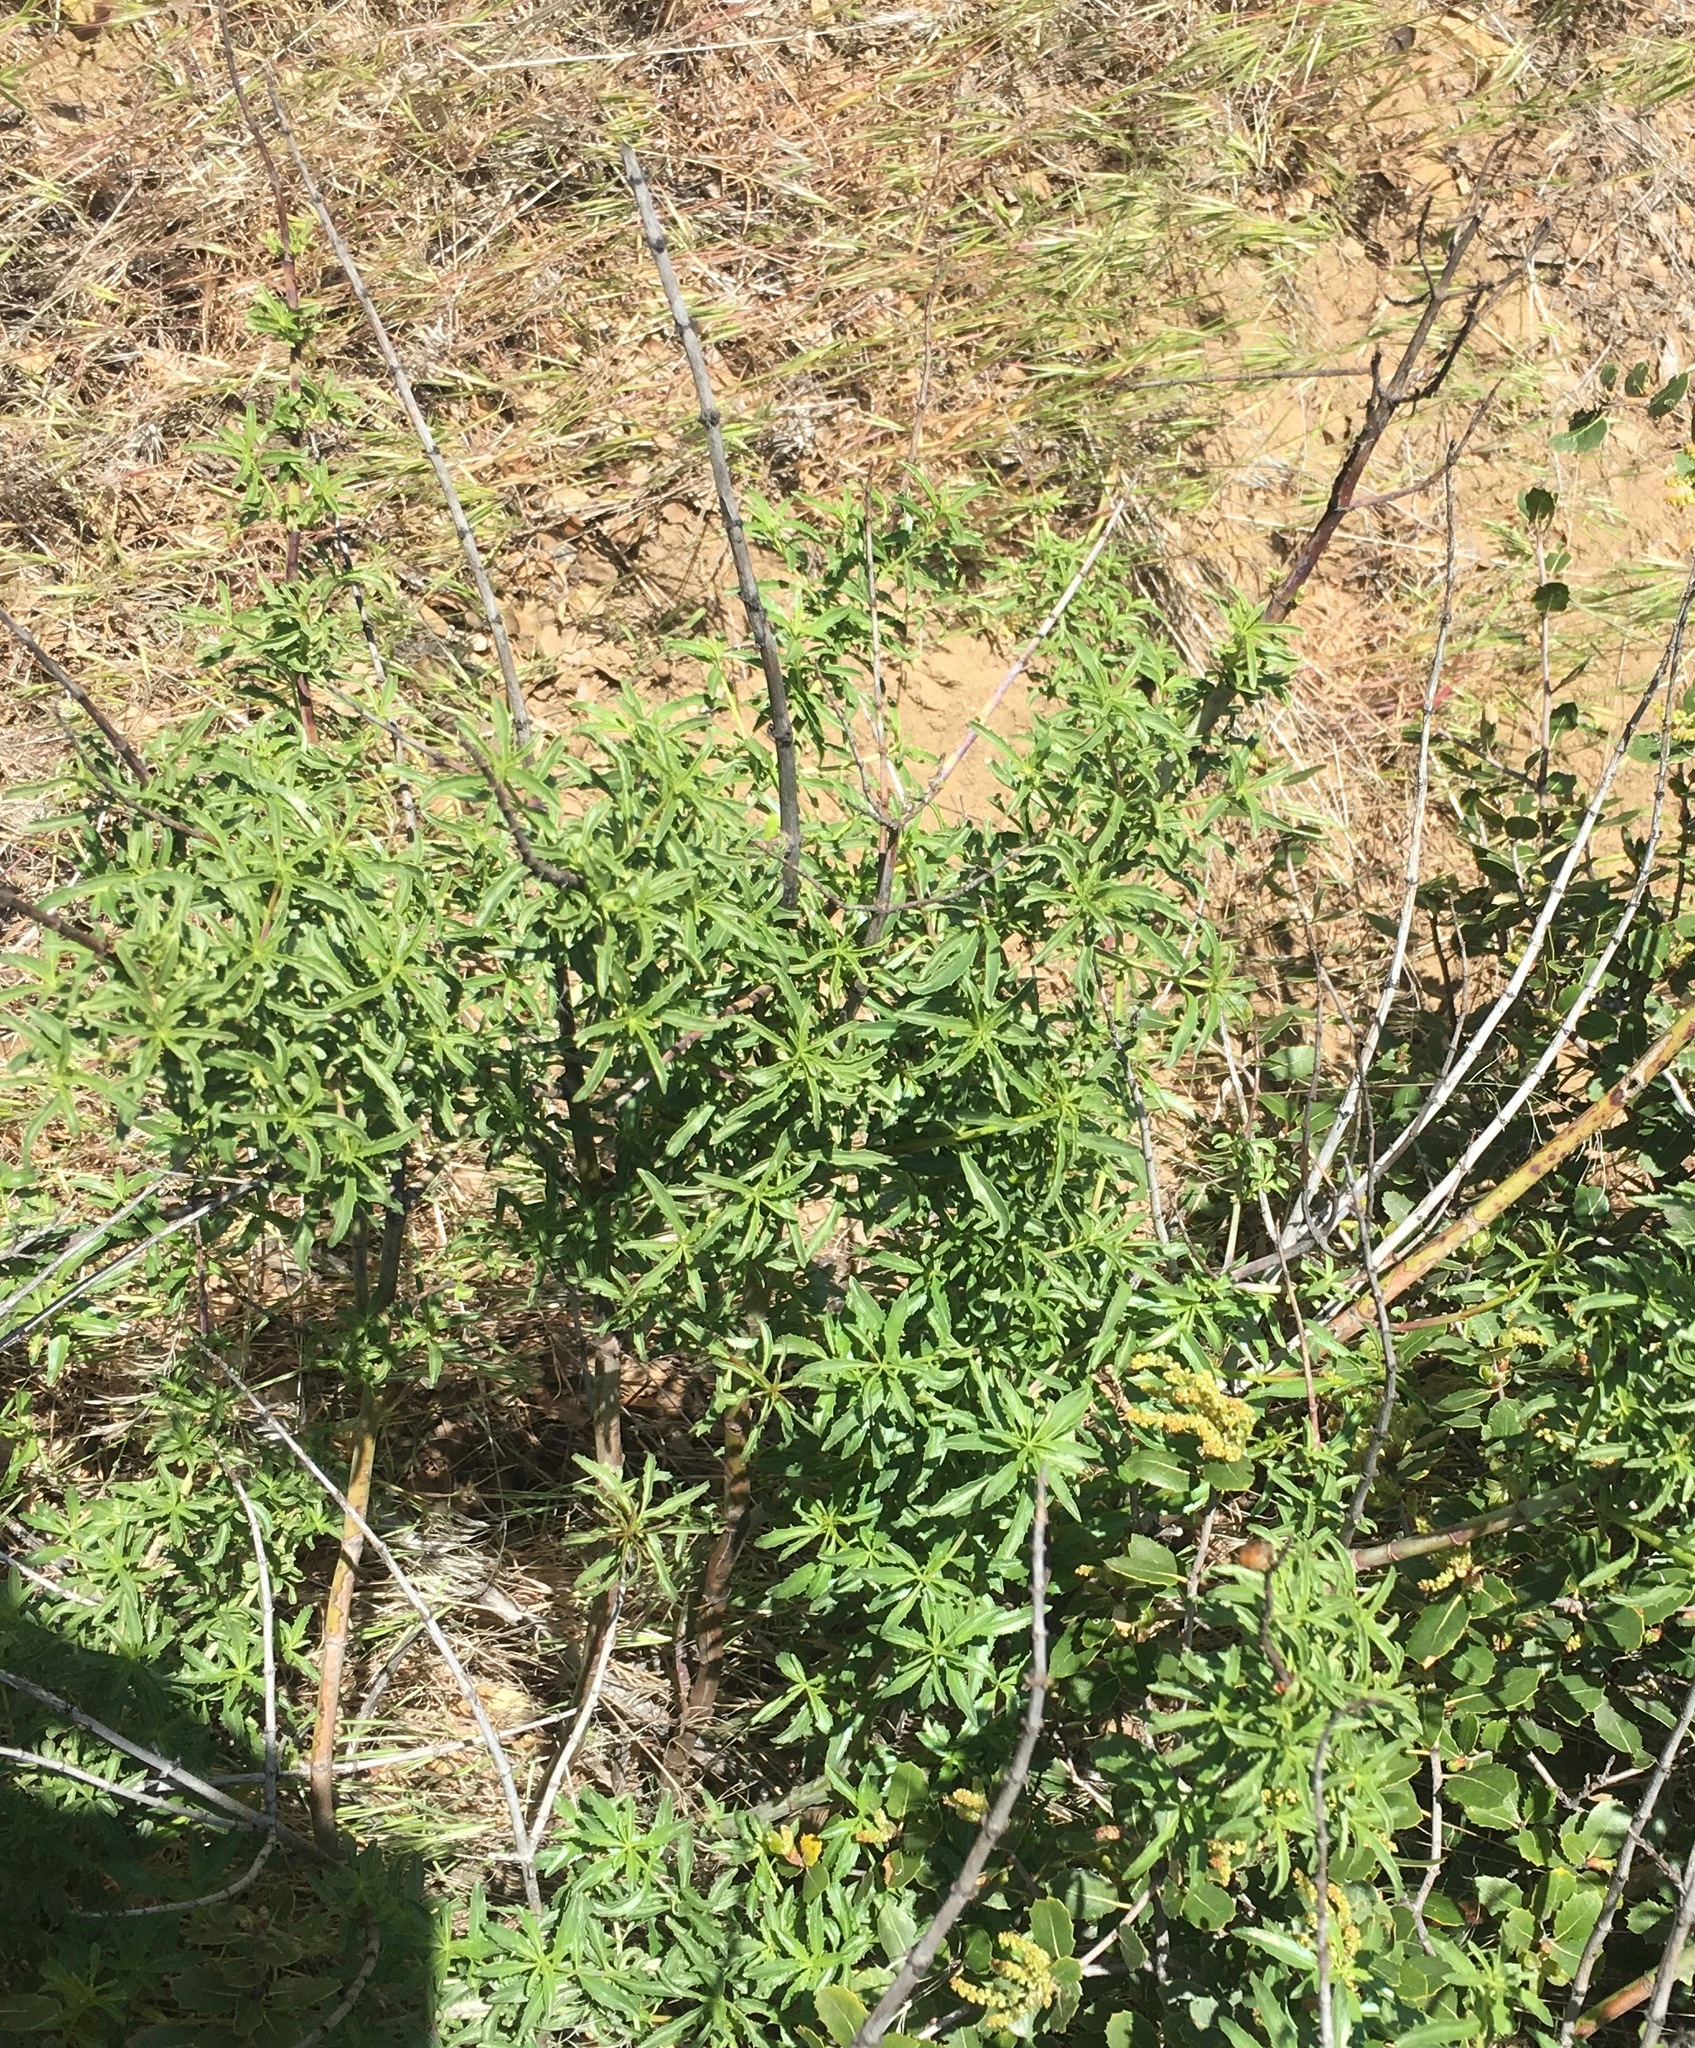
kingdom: Plantae
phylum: Tracheophyta
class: Magnoliopsida
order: Lamiales
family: Plantaginaceae
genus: Keckiella
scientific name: Keckiella ternata
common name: Scarlet keckiella
